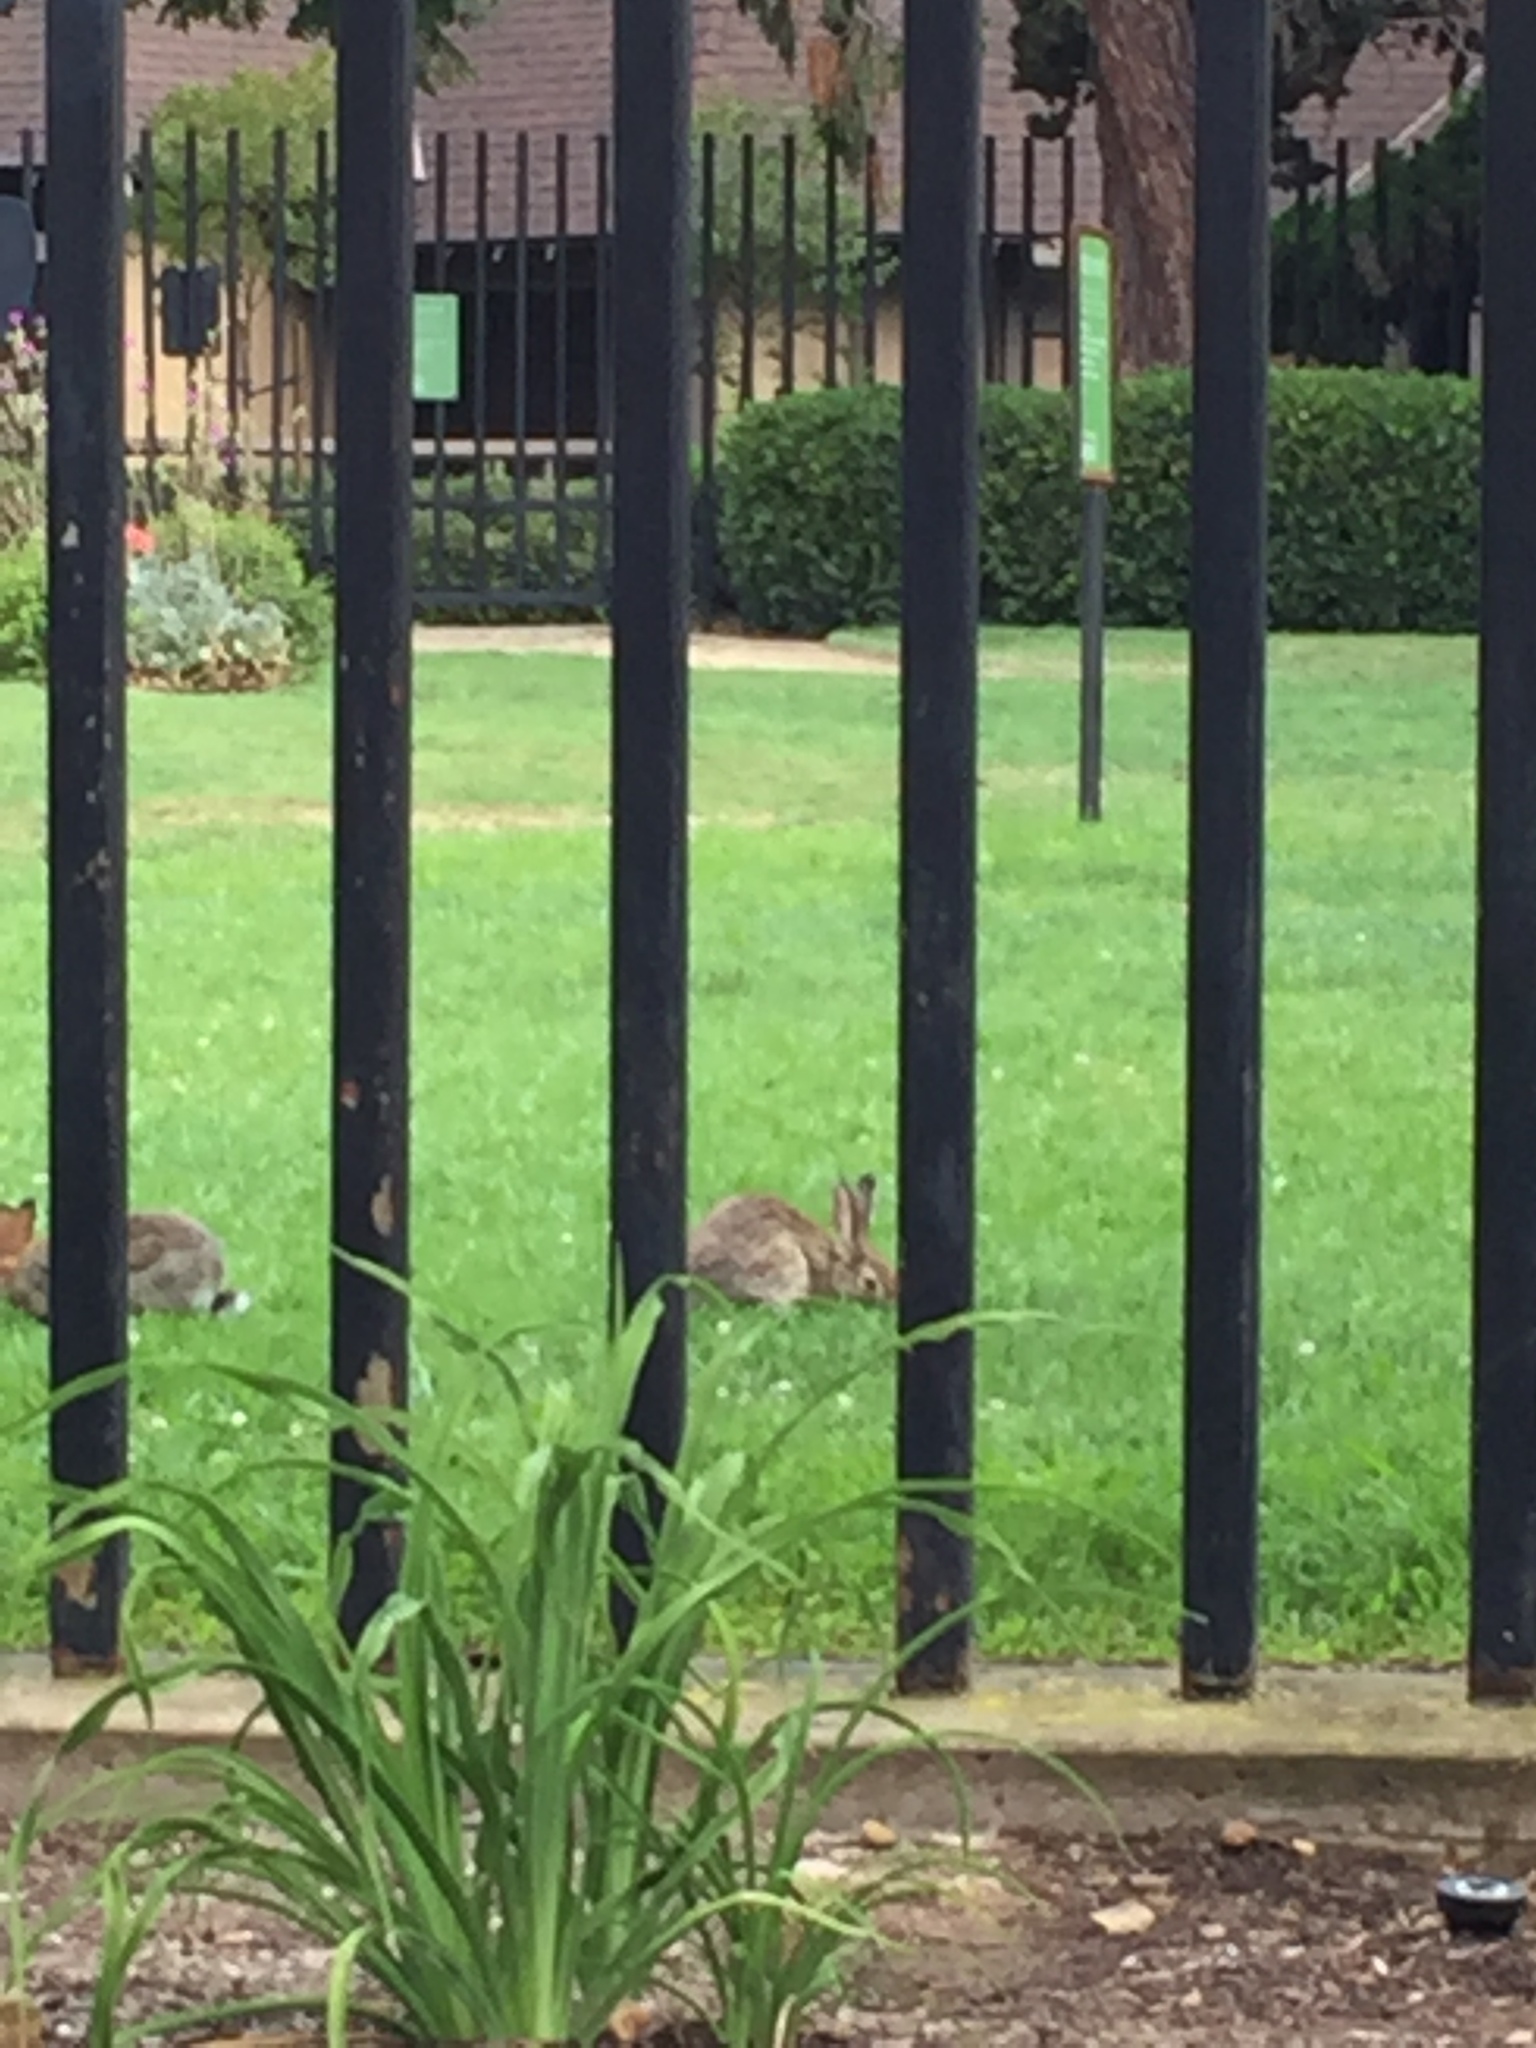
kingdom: Animalia
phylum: Chordata
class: Mammalia
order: Lagomorpha
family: Leporidae
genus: Sylvilagus
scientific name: Sylvilagus audubonii
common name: Desert cottontail
